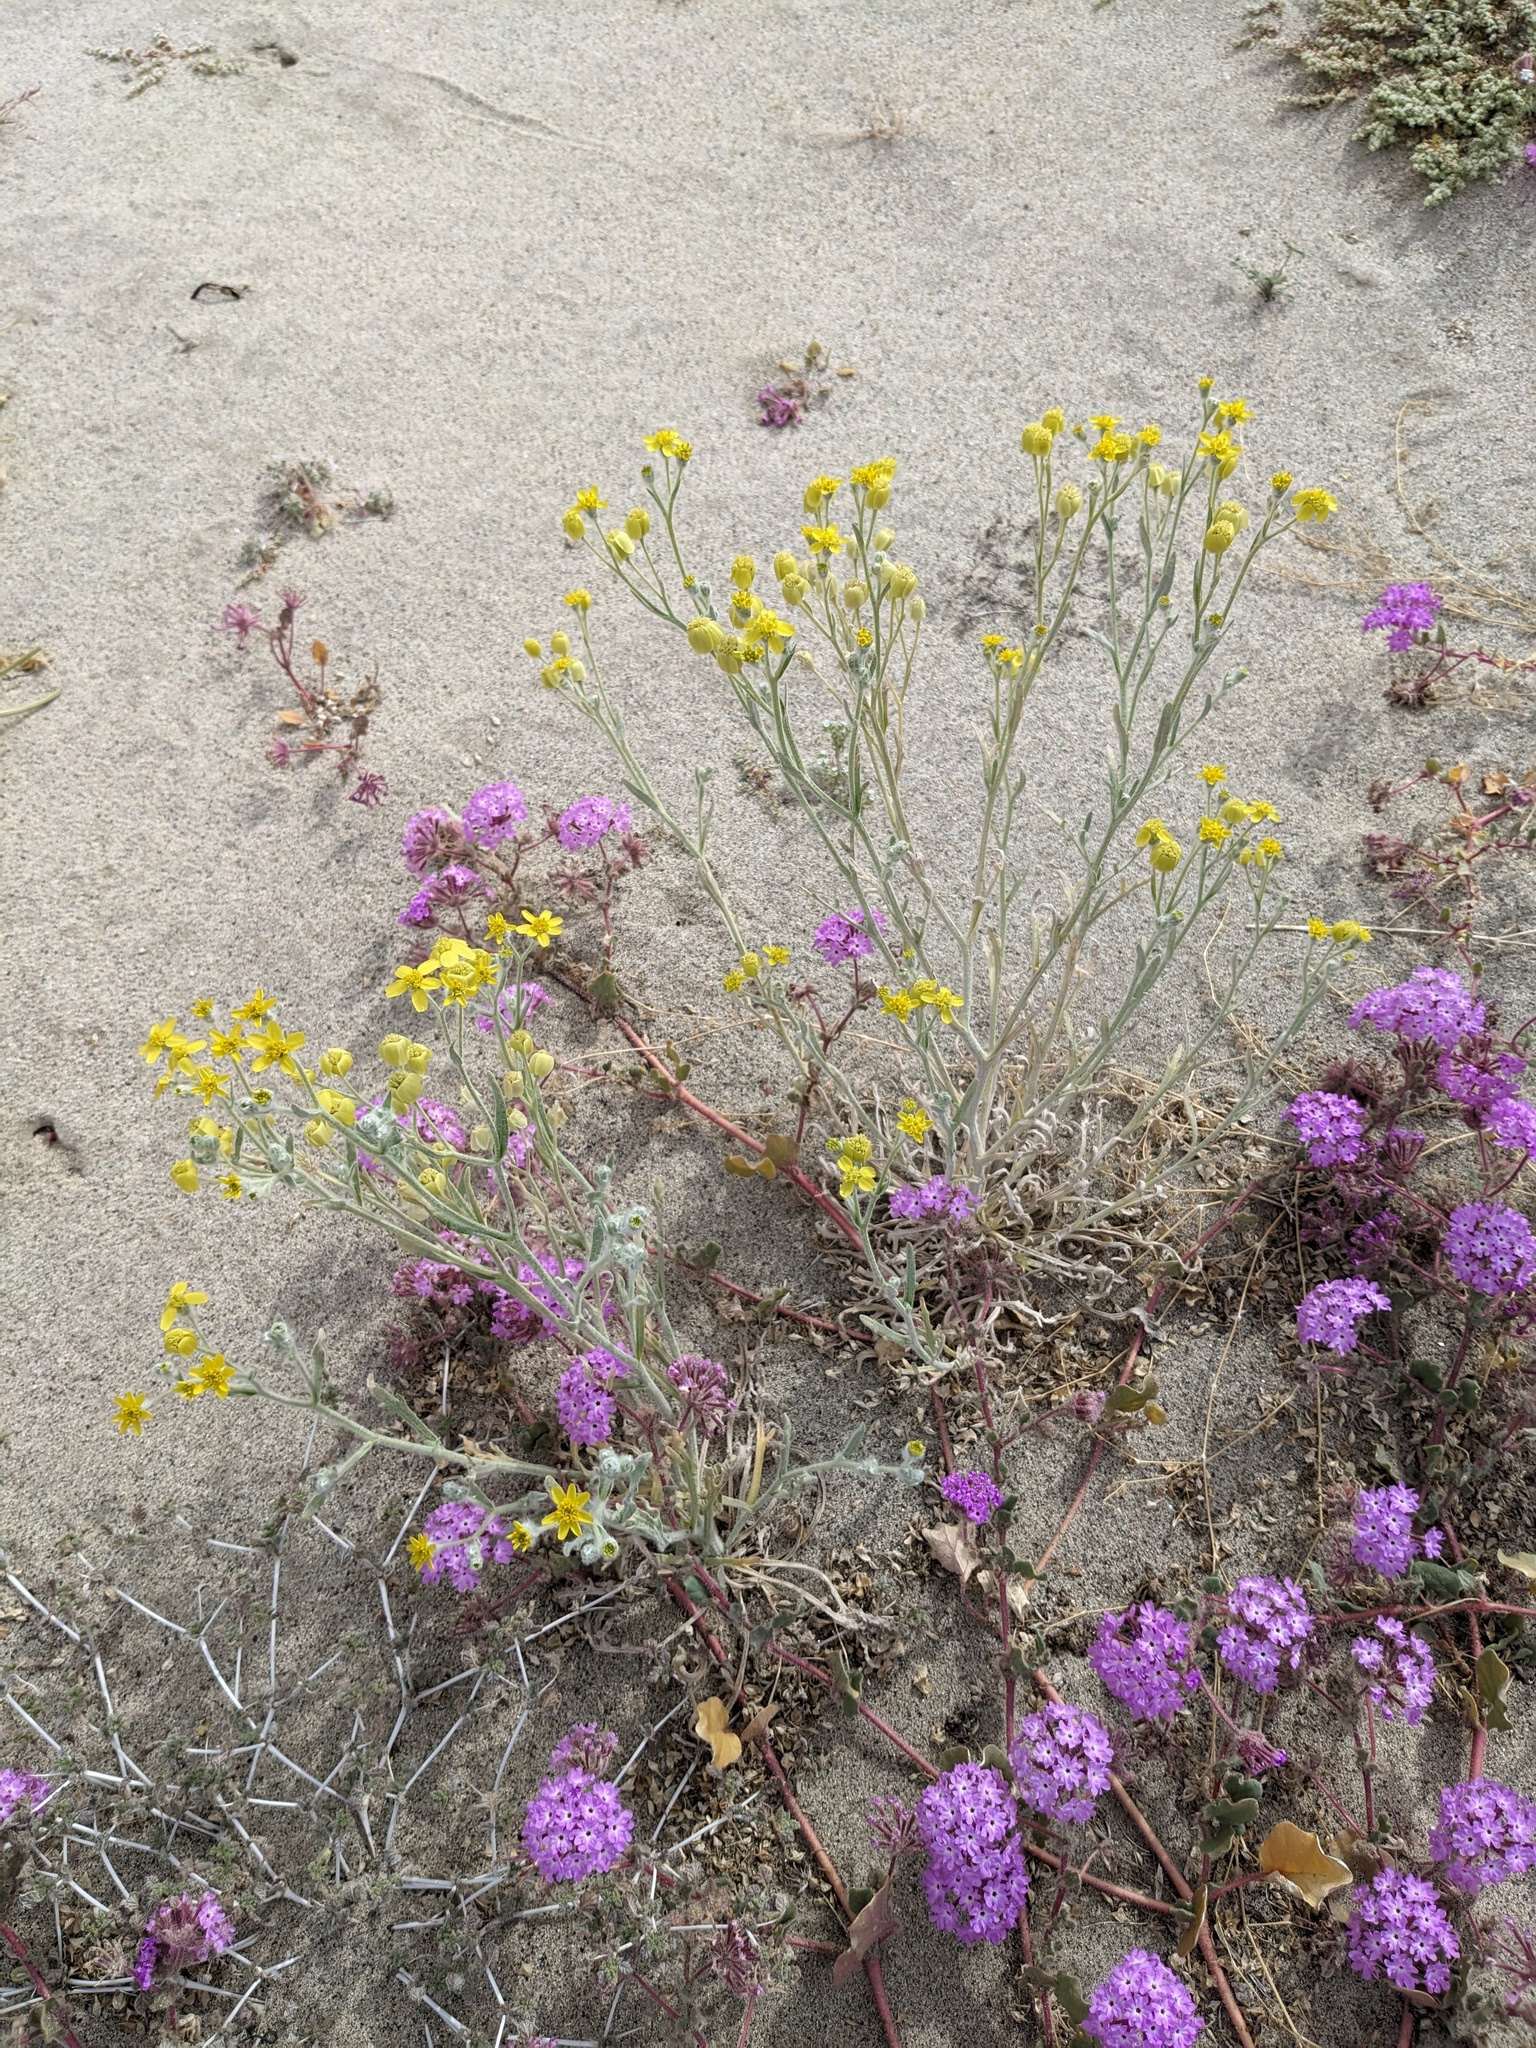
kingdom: Plantae
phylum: Tracheophyta
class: Magnoliopsida
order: Asterales
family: Asteraceae
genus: Baileya
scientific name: Baileya pauciradiata
